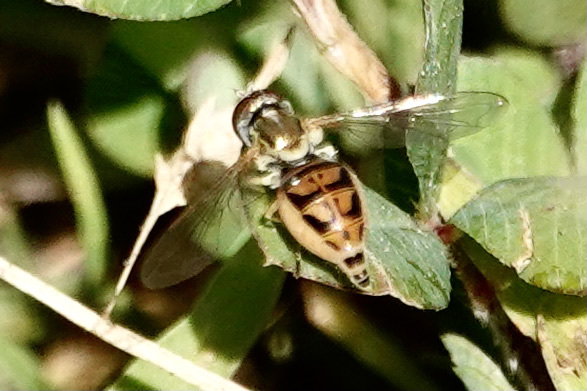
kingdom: Animalia
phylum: Arthropoda
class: Insecta
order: Diptera
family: Syrphidae
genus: Toxomerus
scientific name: Toxomerus marginatus
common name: Syrphid fly
